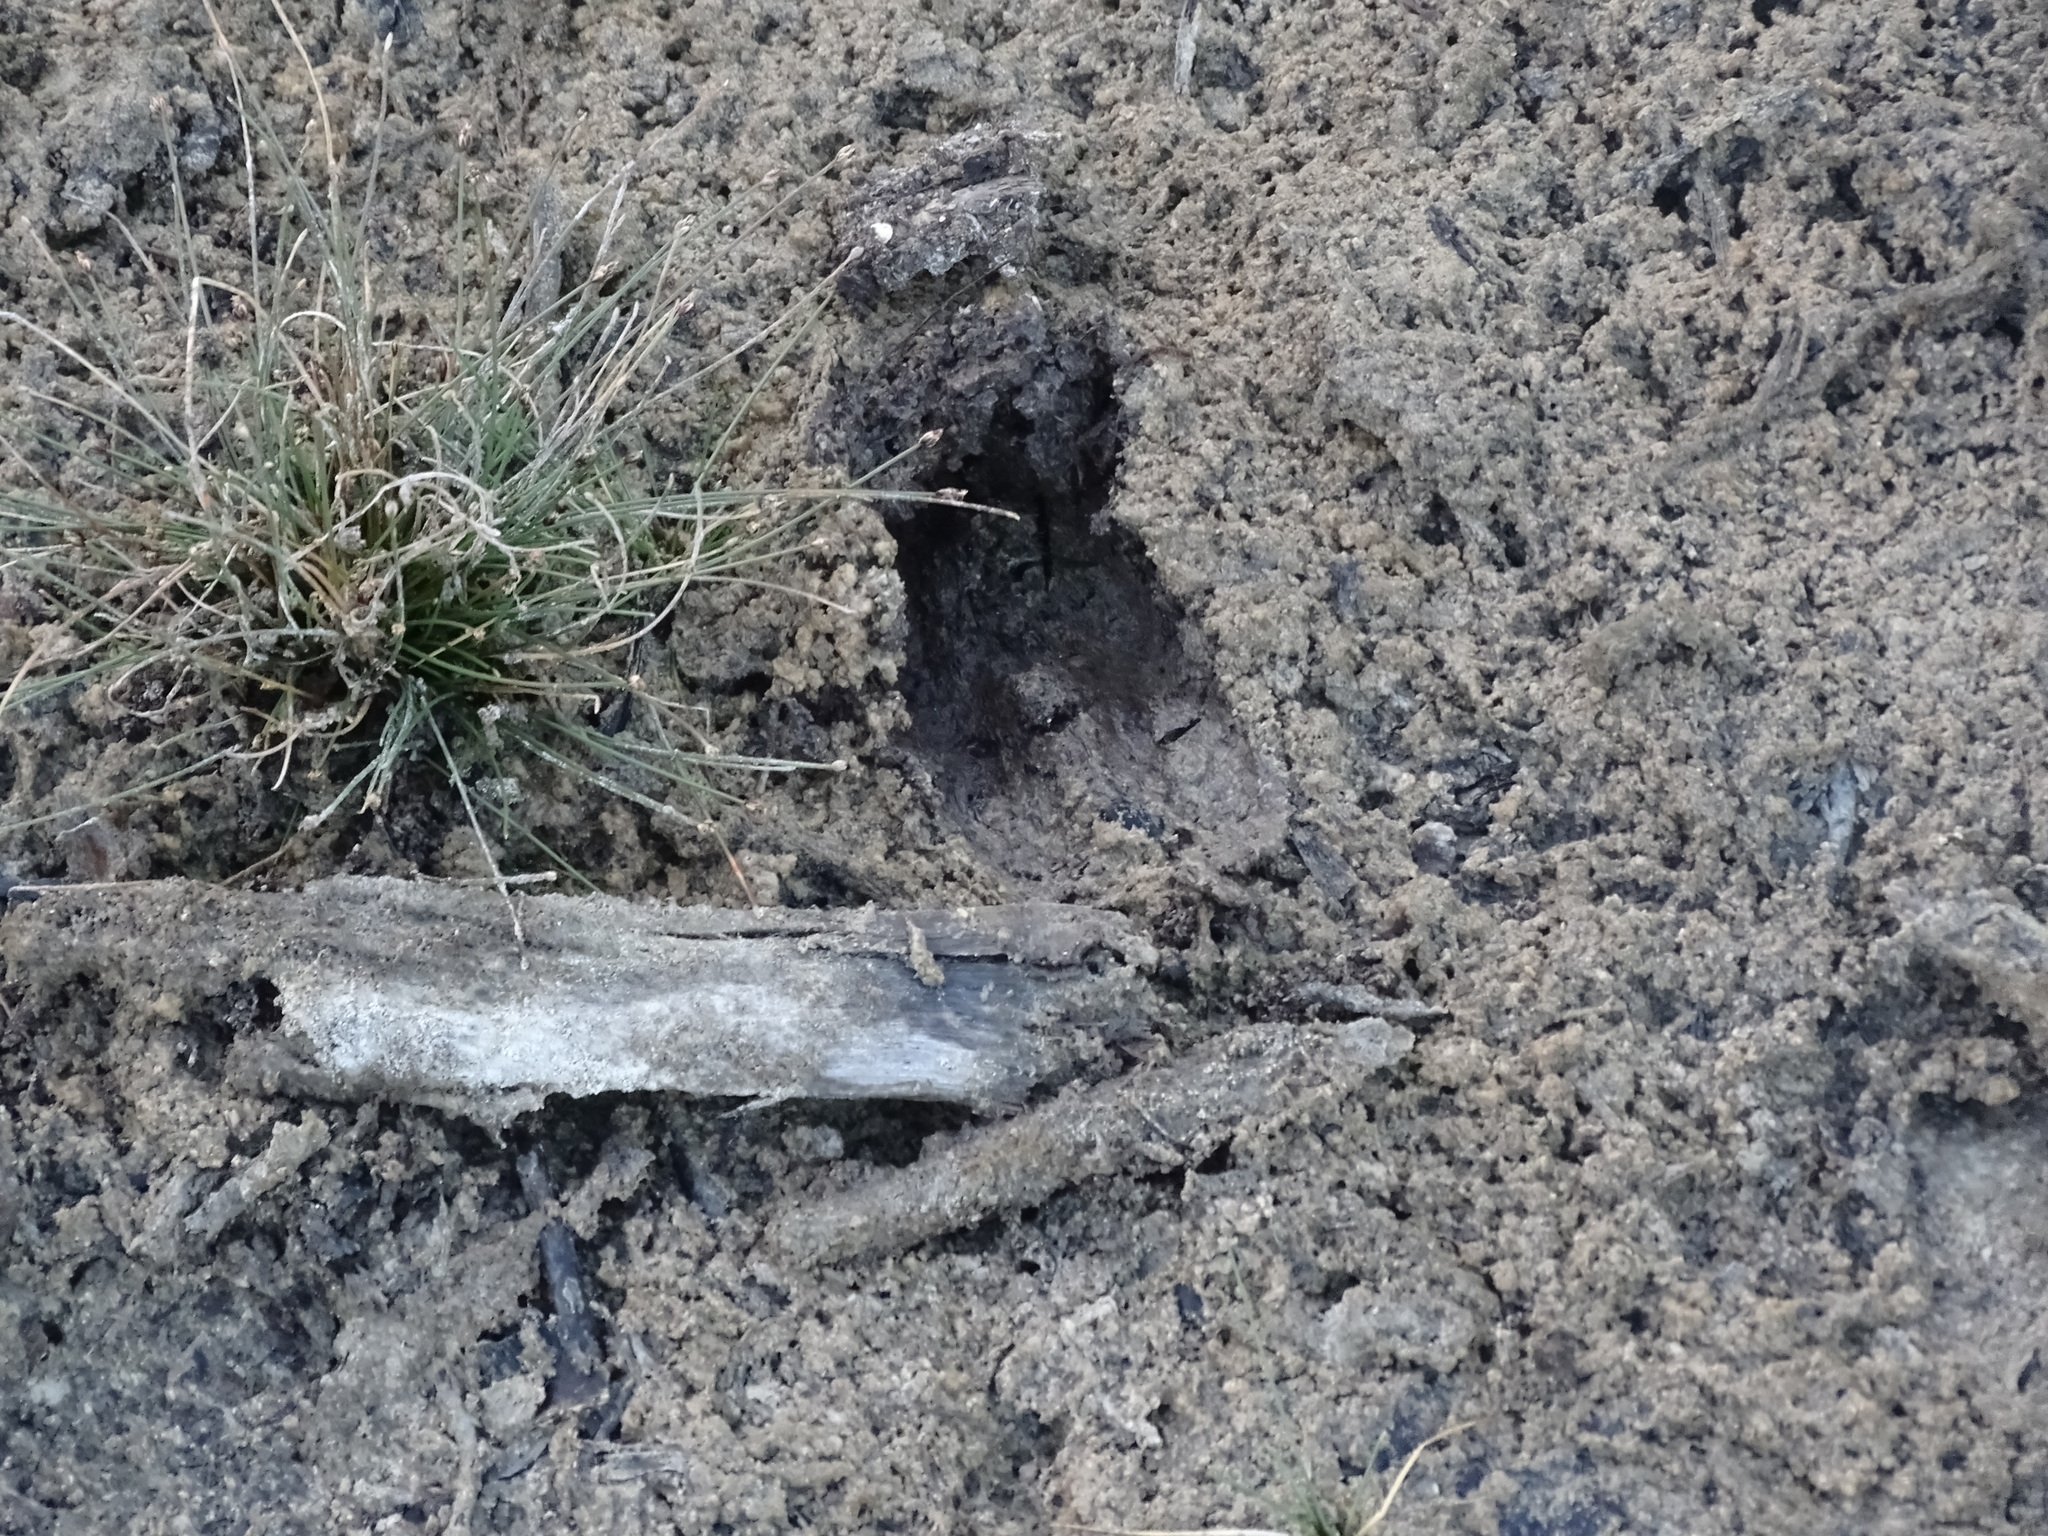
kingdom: Animalia
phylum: Chordata
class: Mammalia
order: Artiodactyla
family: Cervidae
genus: Odocoileus
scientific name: Odocoileus virginianus
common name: White-tailed deer
